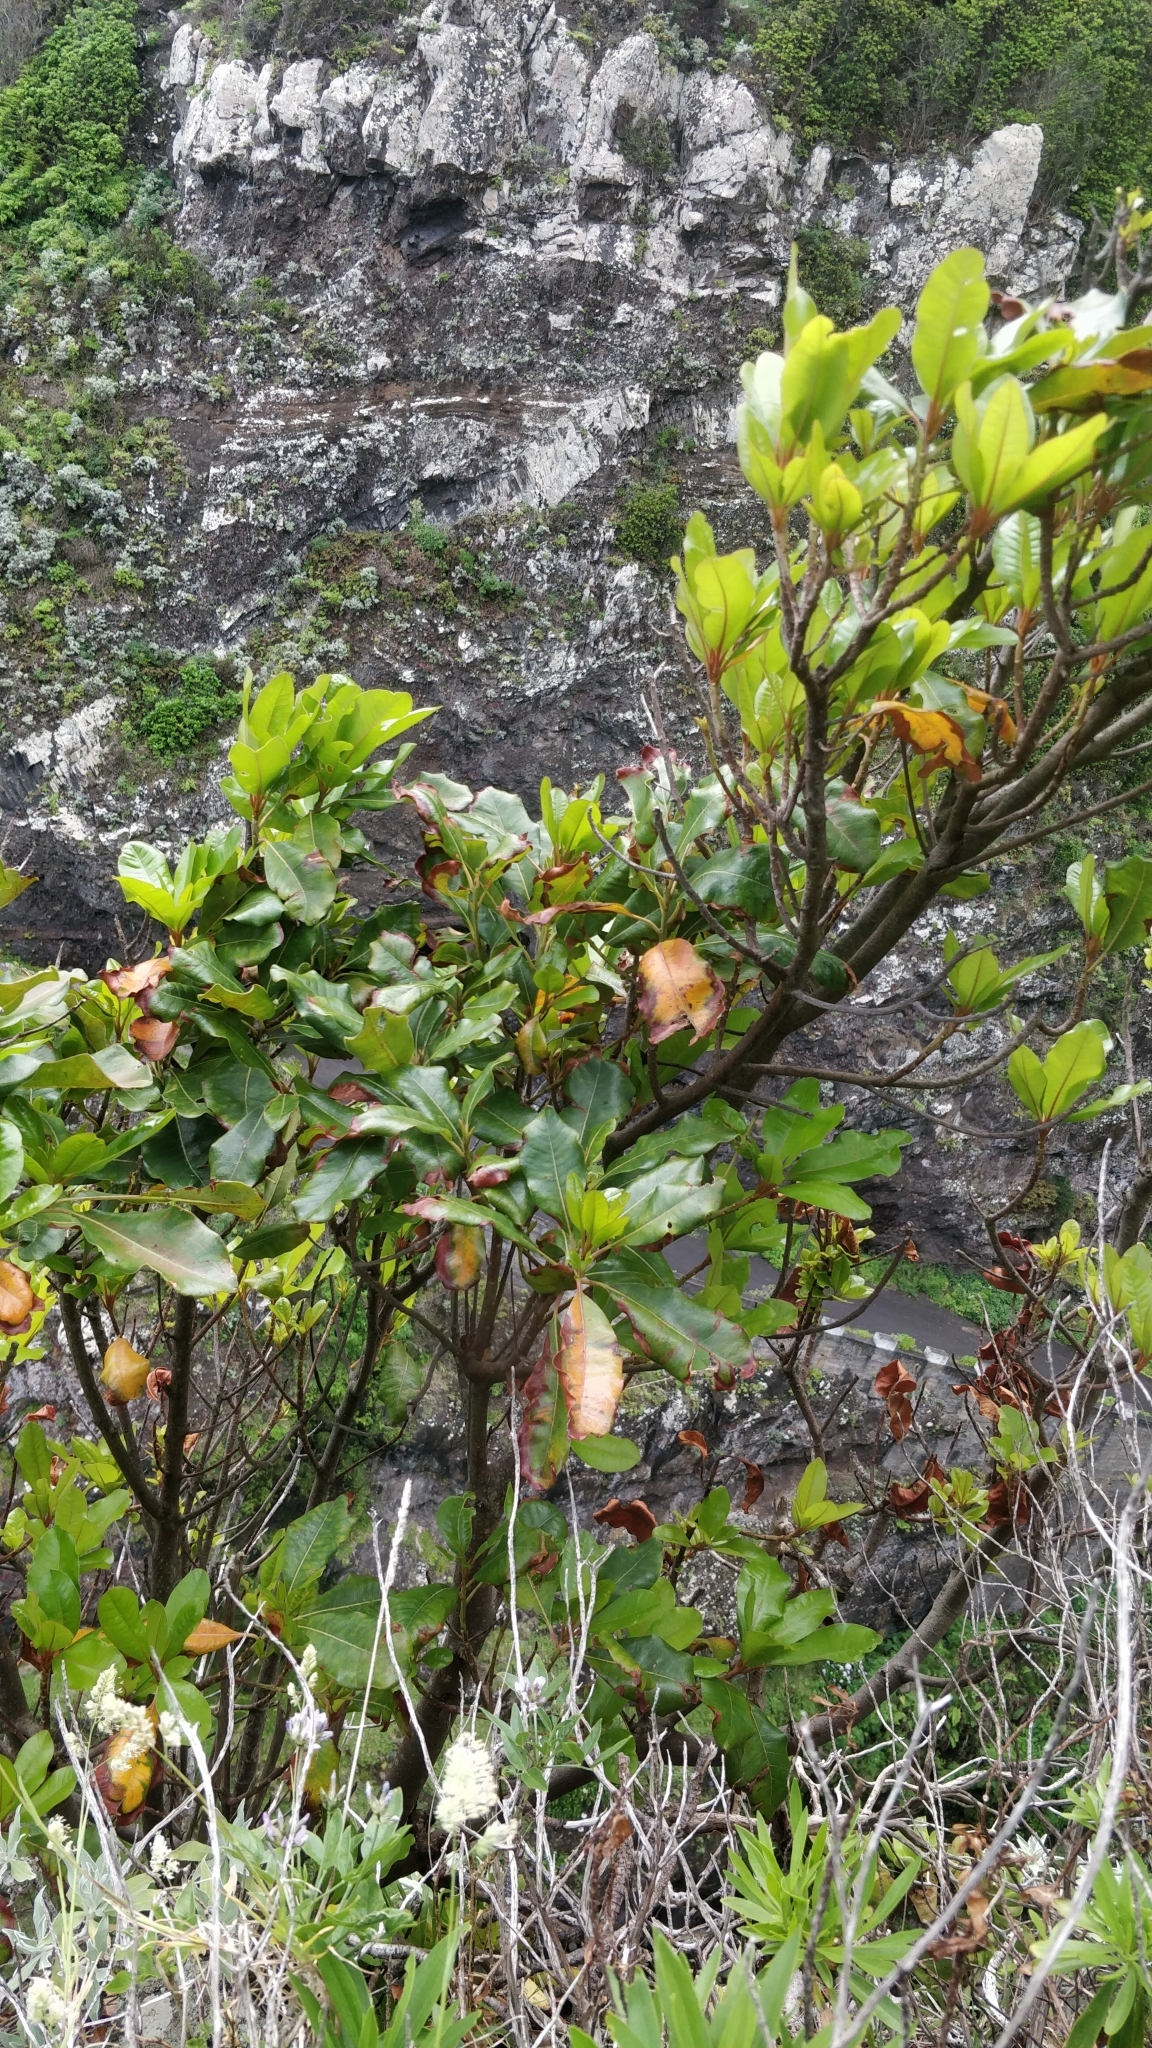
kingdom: Plantae
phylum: Tracheophyta
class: Magnoliopsida
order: Ericales
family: Sapotaceae
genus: Sideroxylon
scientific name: Sideroxylon mirmulans
